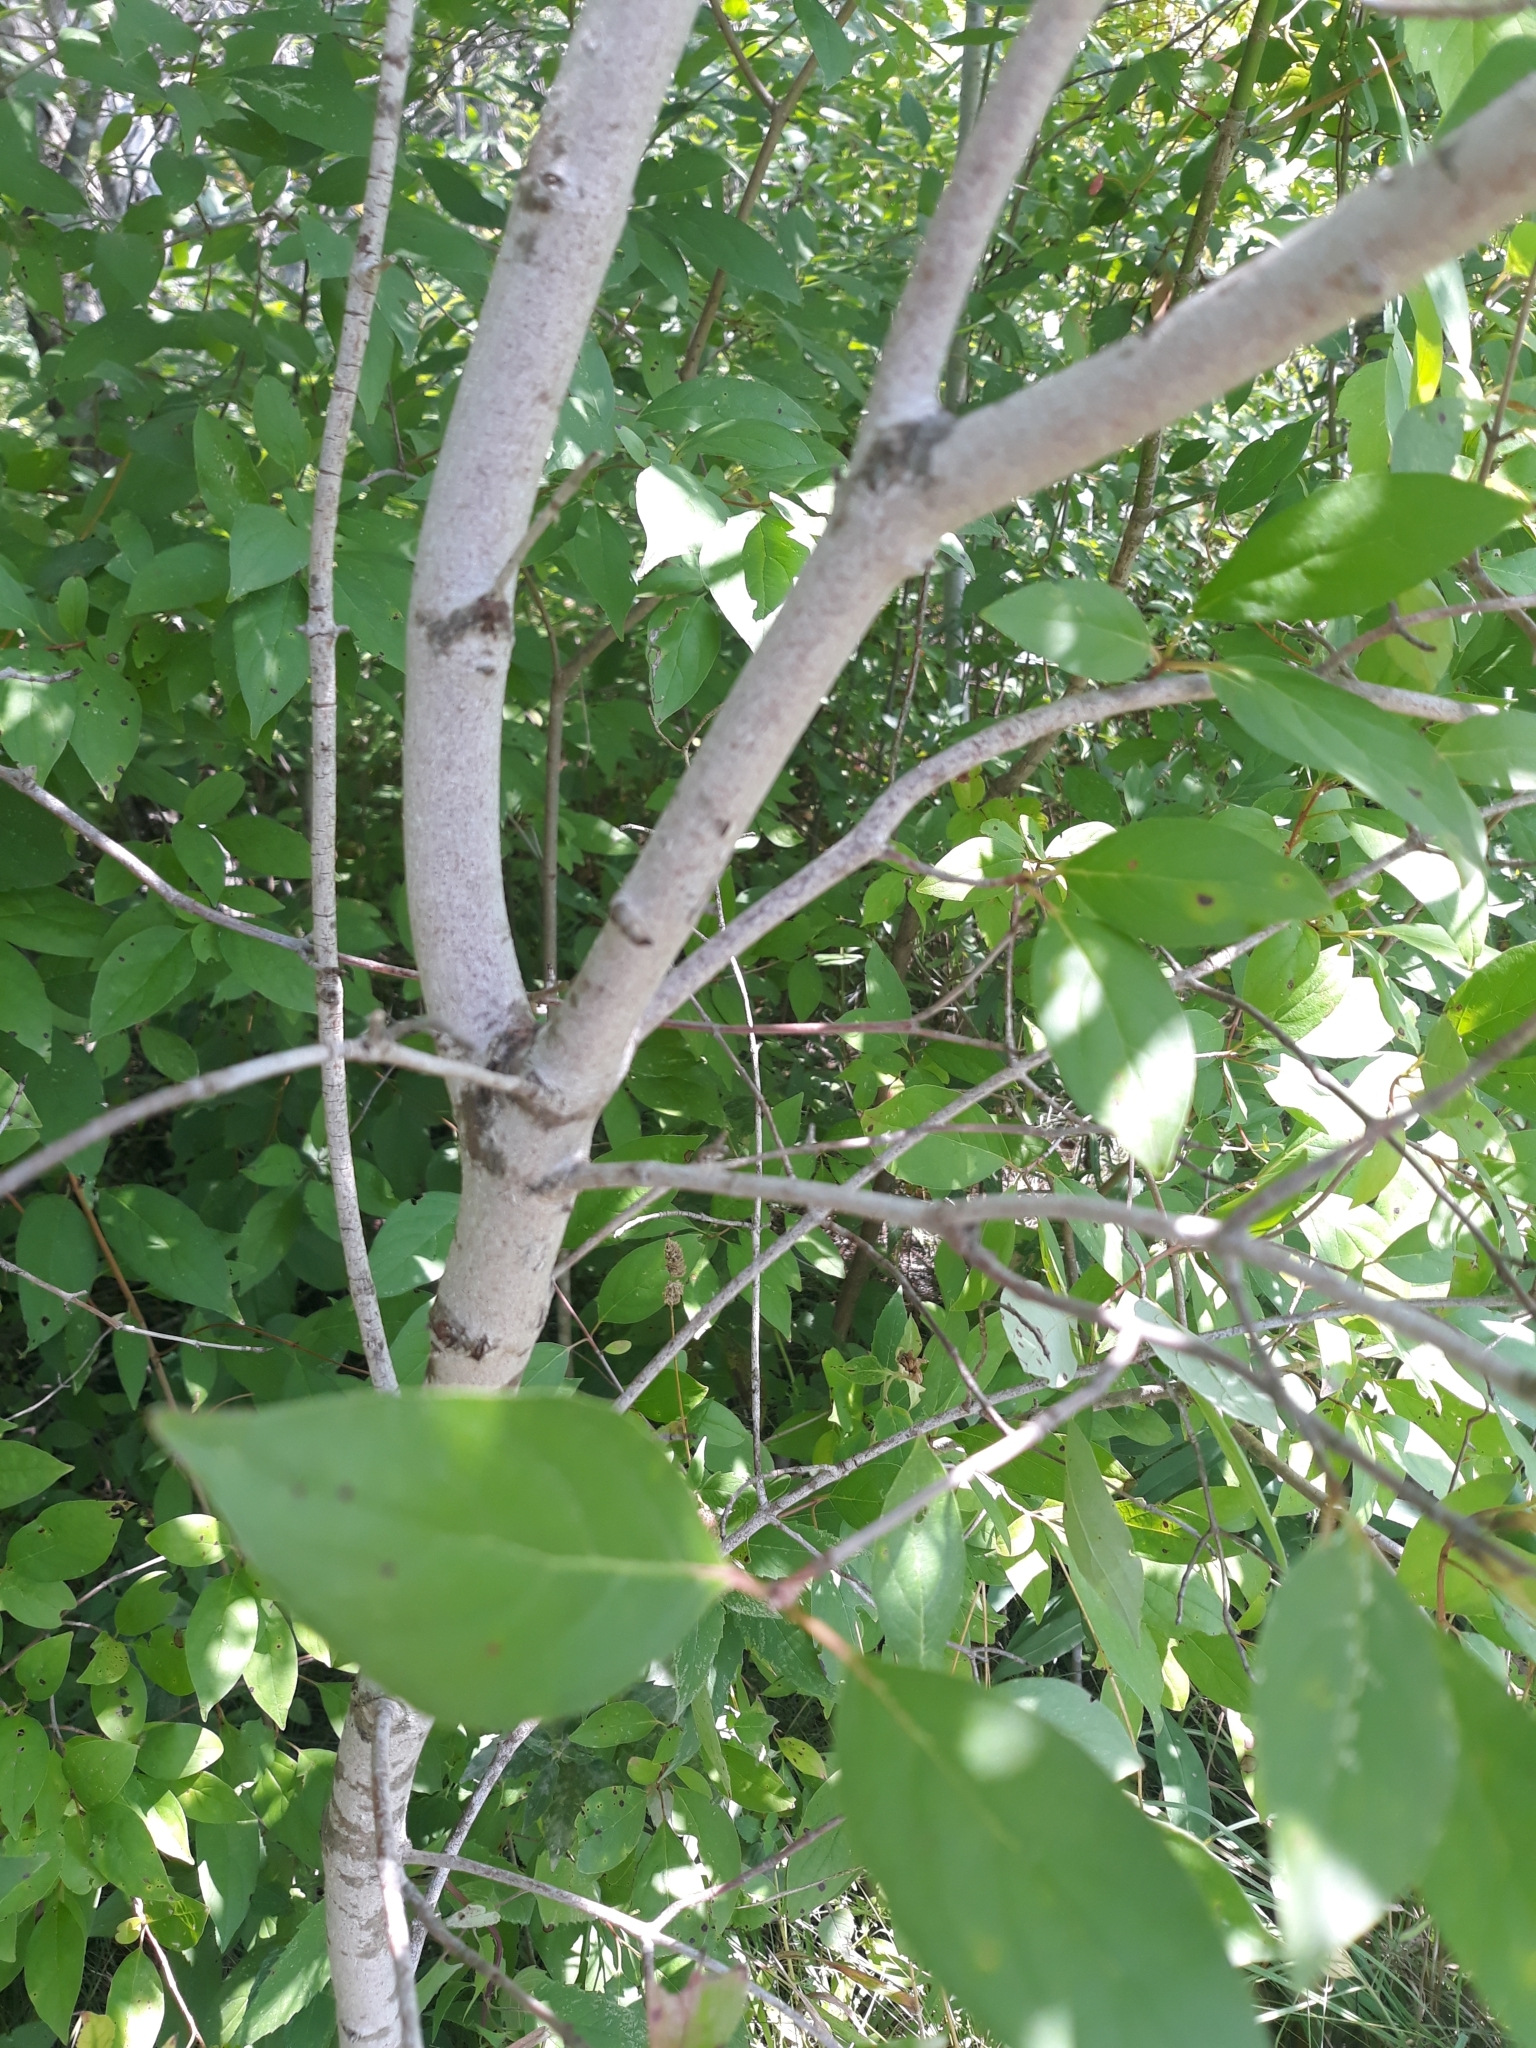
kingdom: Plantae
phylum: Tracheophyta
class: Magnoliopsida
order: Cornales
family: Cornaceae
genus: Cornus
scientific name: Cornus racemosa
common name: Panicled dogwood
